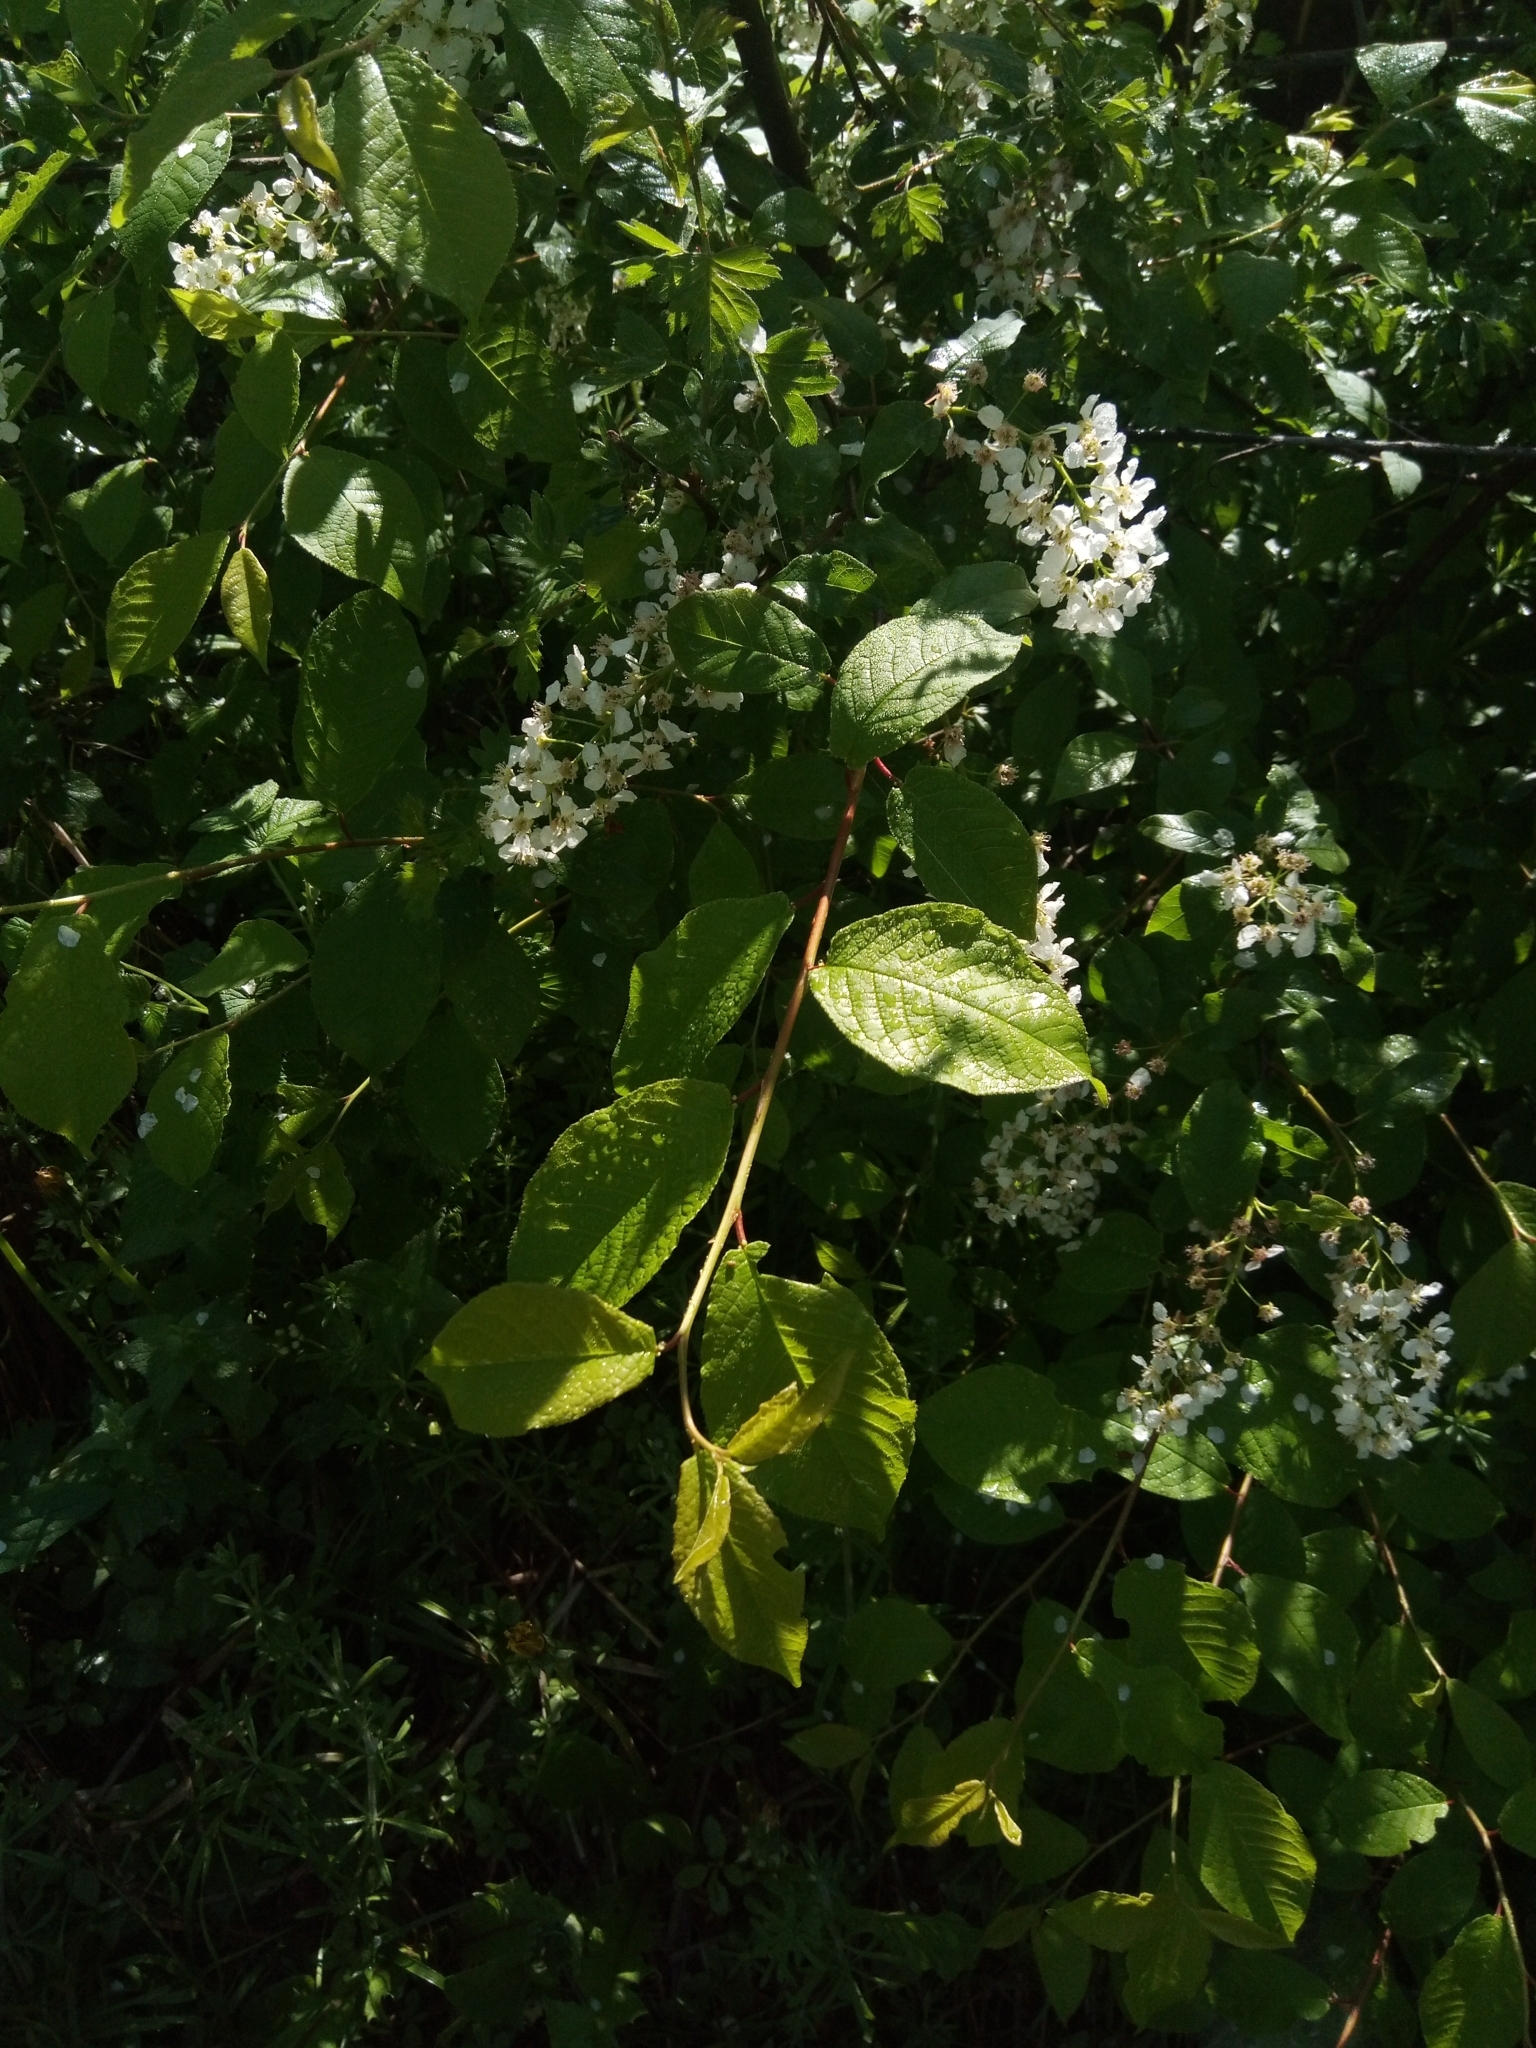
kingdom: Plantae
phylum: Tracheophyta
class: Magnoliopsida
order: Rosales
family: Rosaceae
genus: Prunus
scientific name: Prunus padus
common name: Bird cherry
